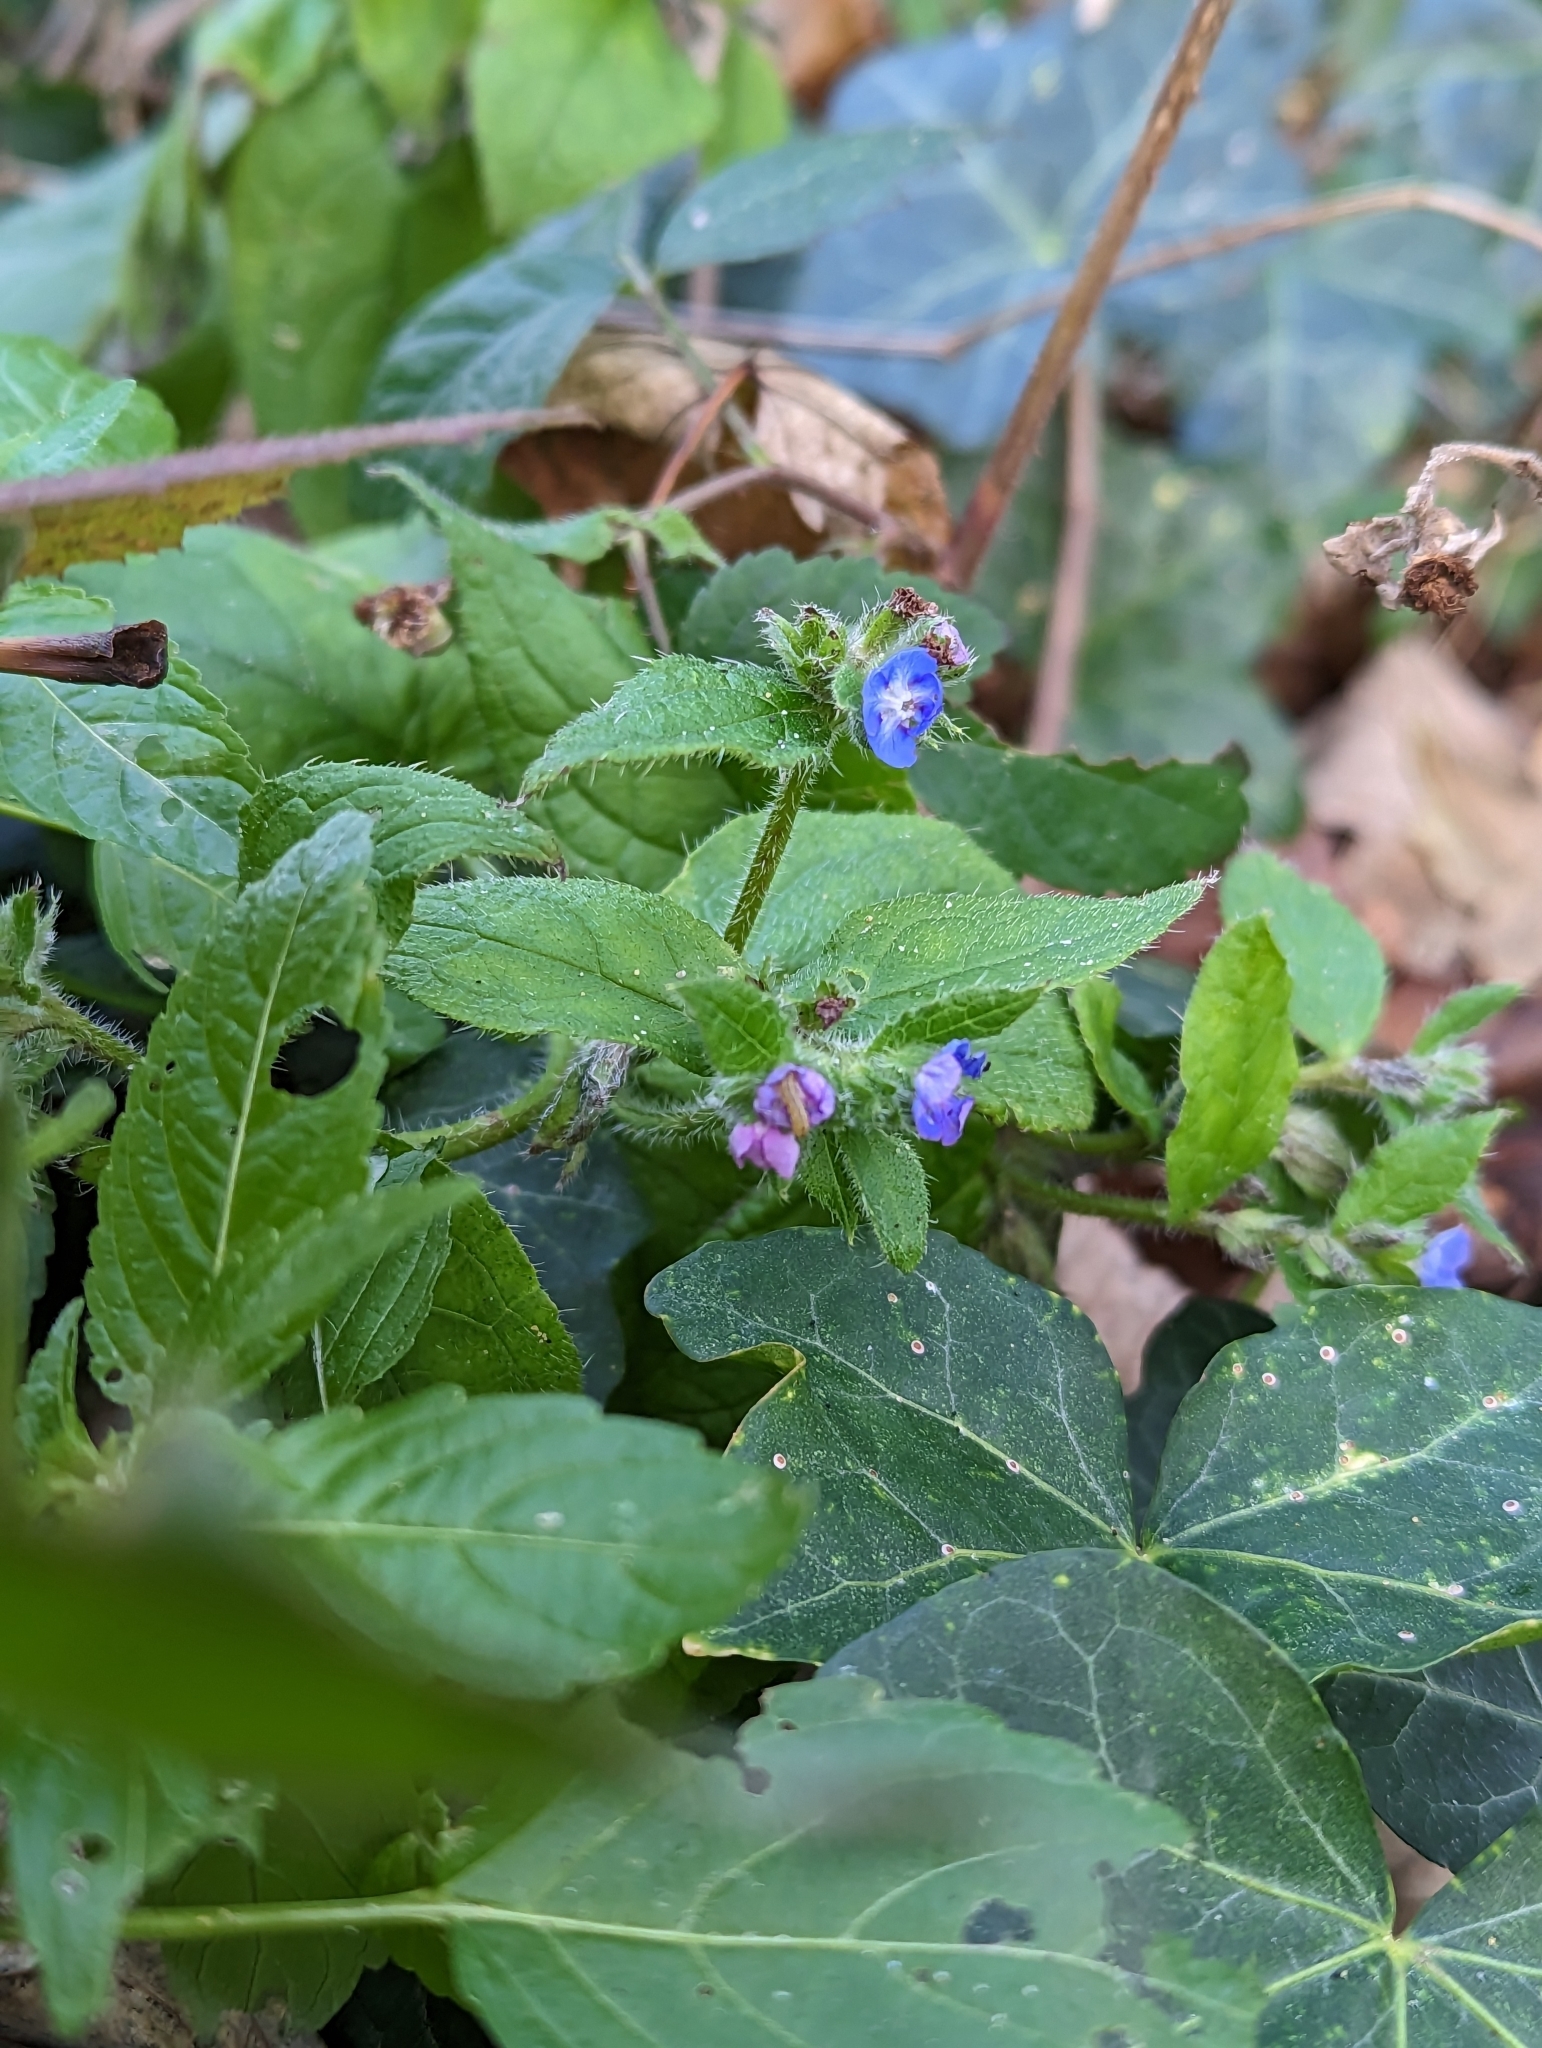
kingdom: Plantae
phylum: Tracheophyta
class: Magnoliopsida
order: Boraginales
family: Boraginaceae
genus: Pentaglottis
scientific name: Pentaglottis sempervirens
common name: Green alkanet
